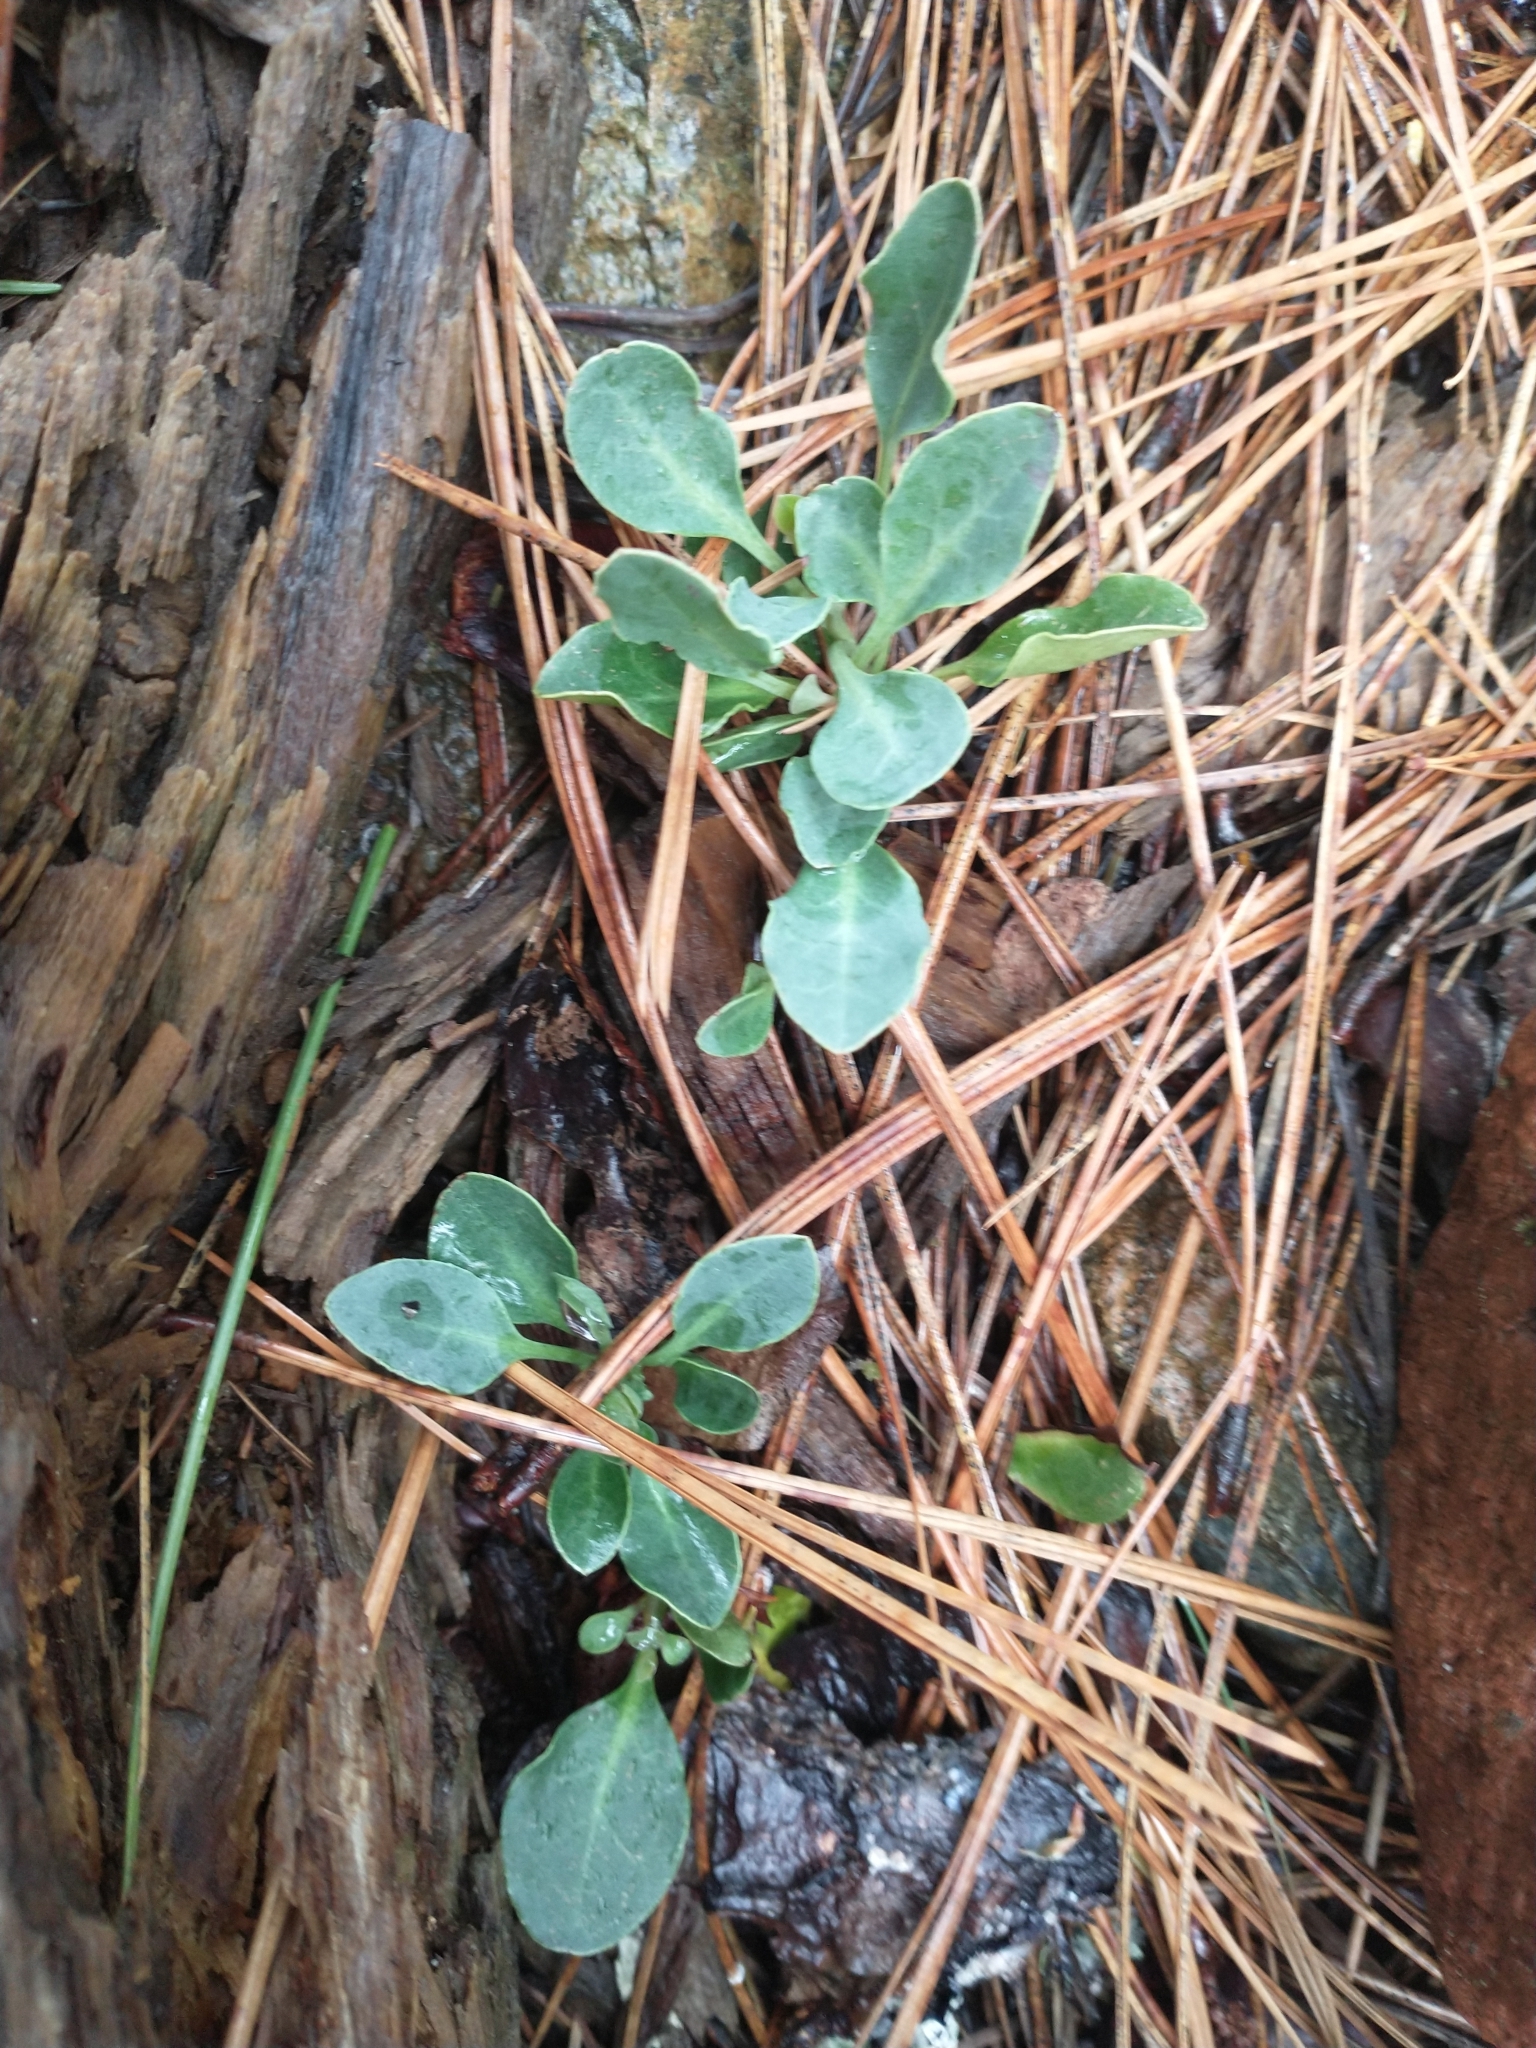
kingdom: Plantae
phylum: Tracheophyta
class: Magnoliopsida
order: Ericales
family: Ericaceae
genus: Pyrola
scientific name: Pyrola dentata
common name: Tooth-leaved wintergreen
